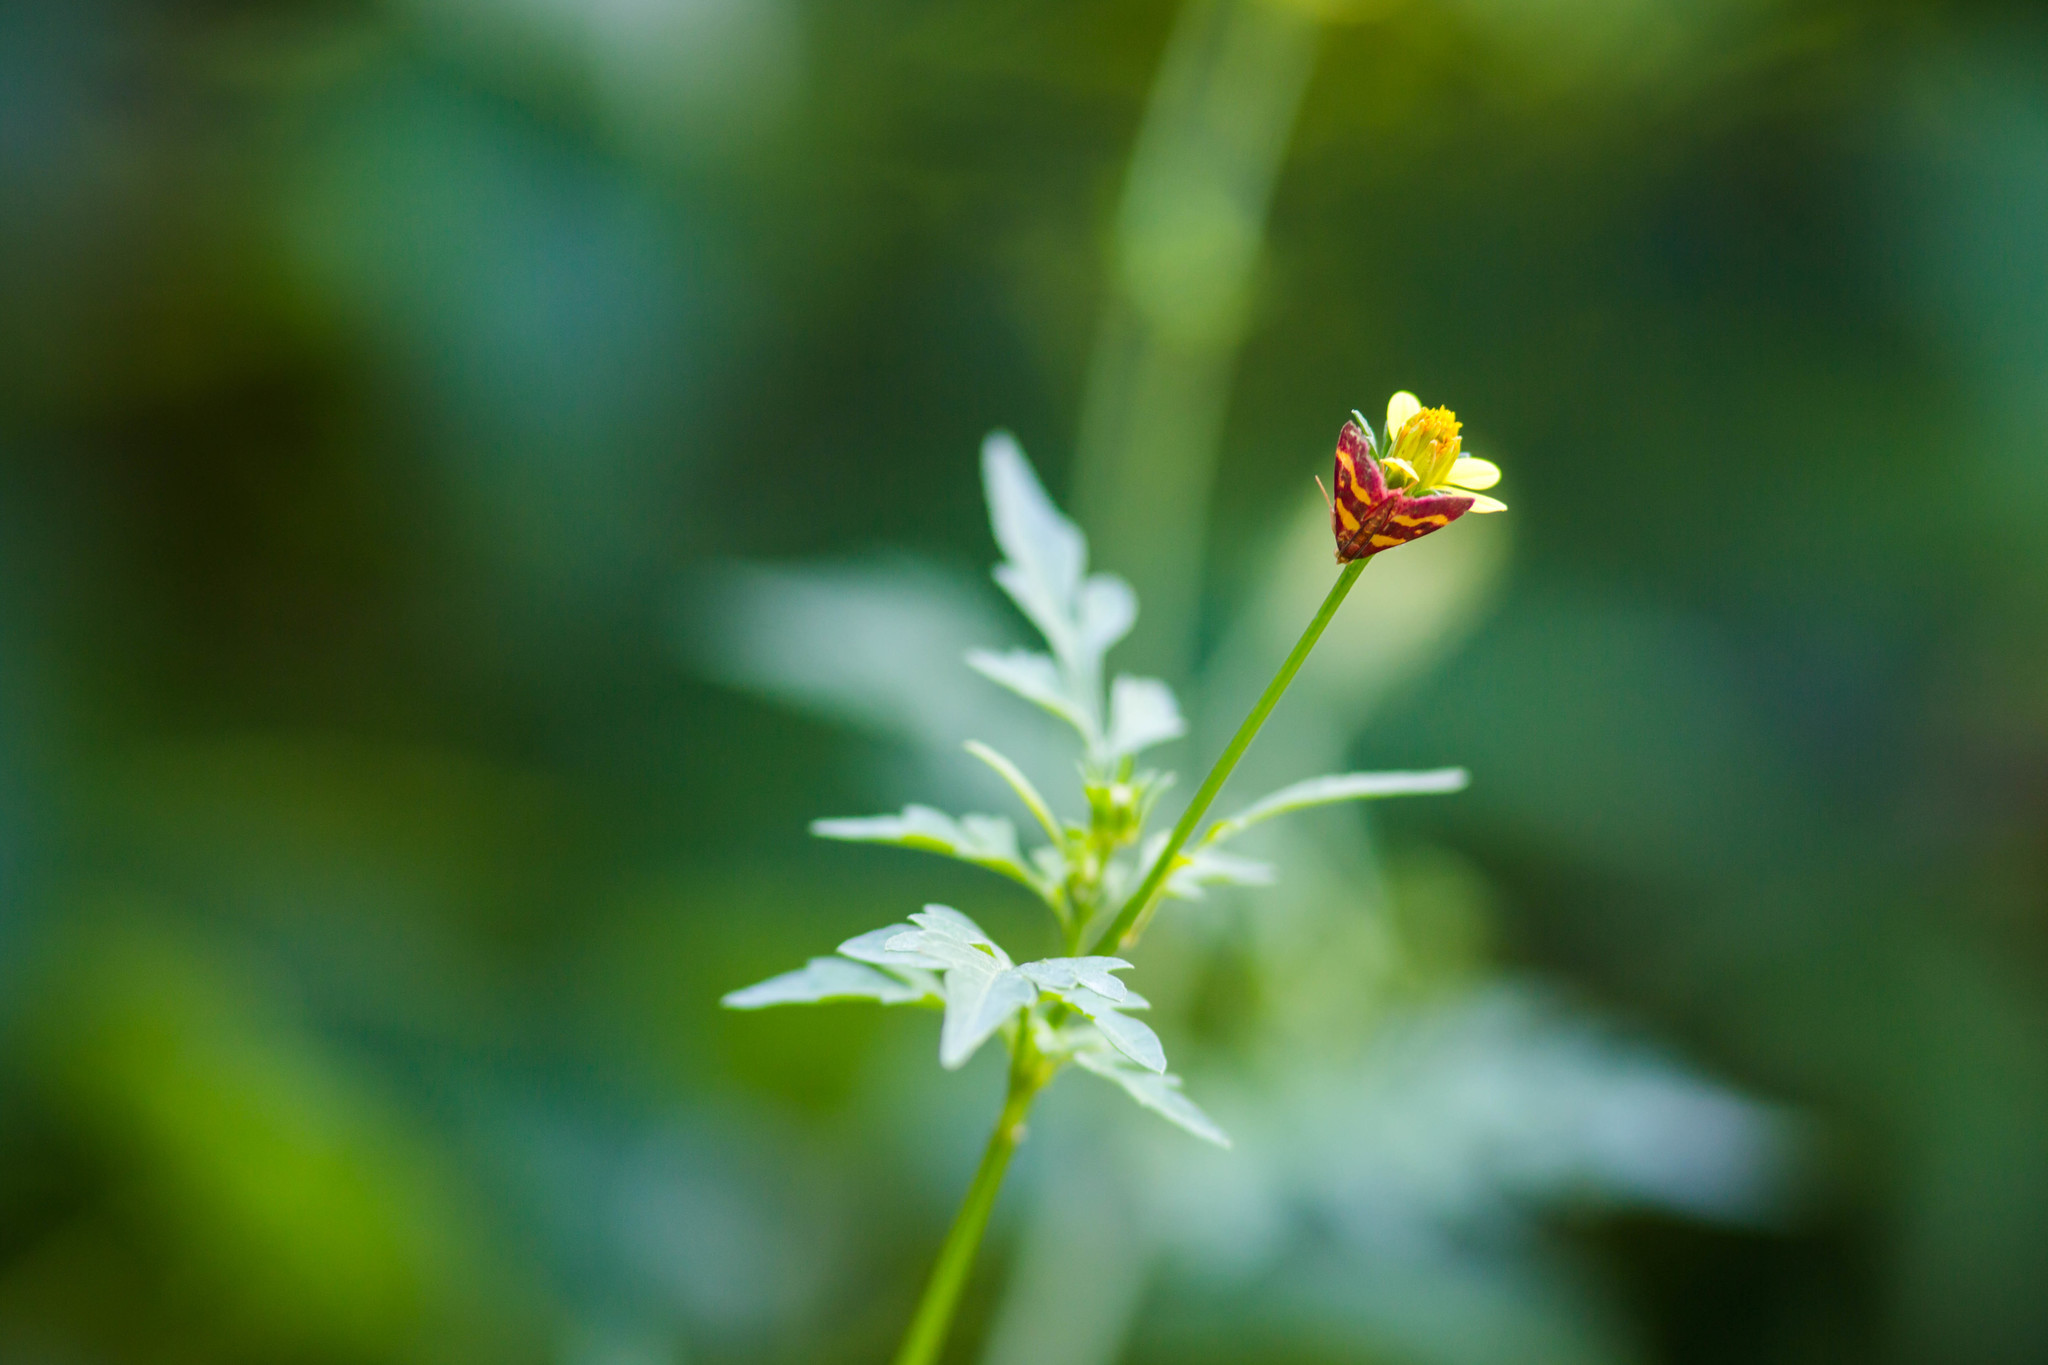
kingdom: Animalia
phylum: Arthropoda
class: Insecta
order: Lepidoptera
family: Crambidae
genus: Pyrausta
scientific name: Pyrausta tyralis
